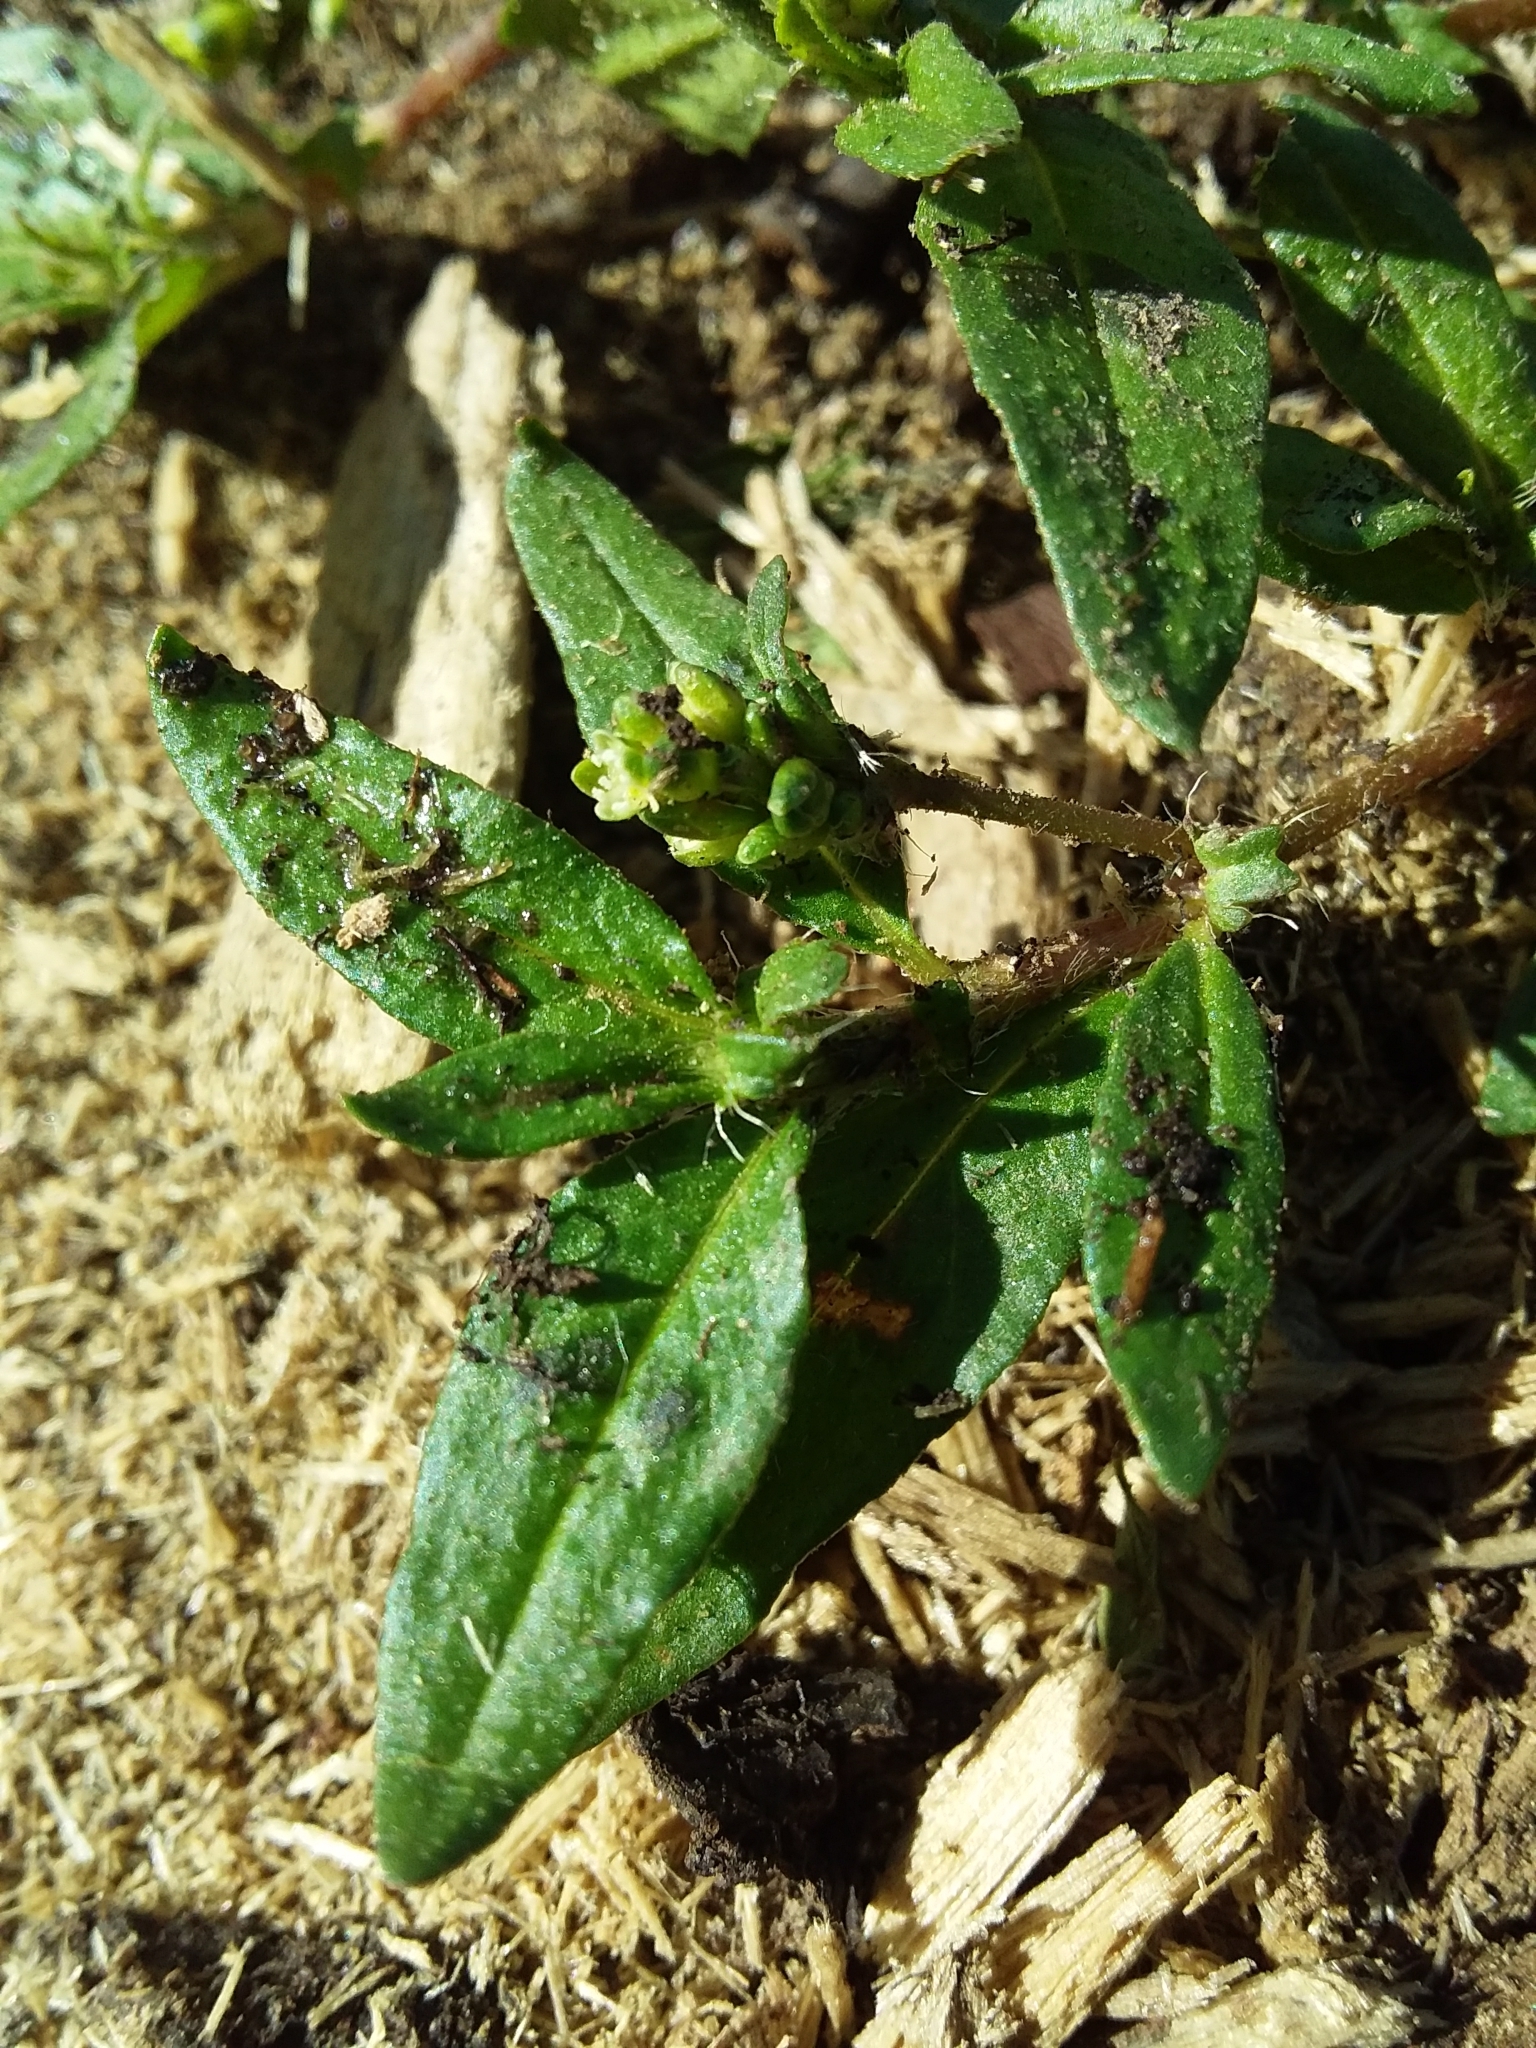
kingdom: Plantae
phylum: Tracheophyta
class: Magnoliopsida
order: Caryophyllales
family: Polygonaceae
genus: Persicaria
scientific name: Persicaria prostrata
